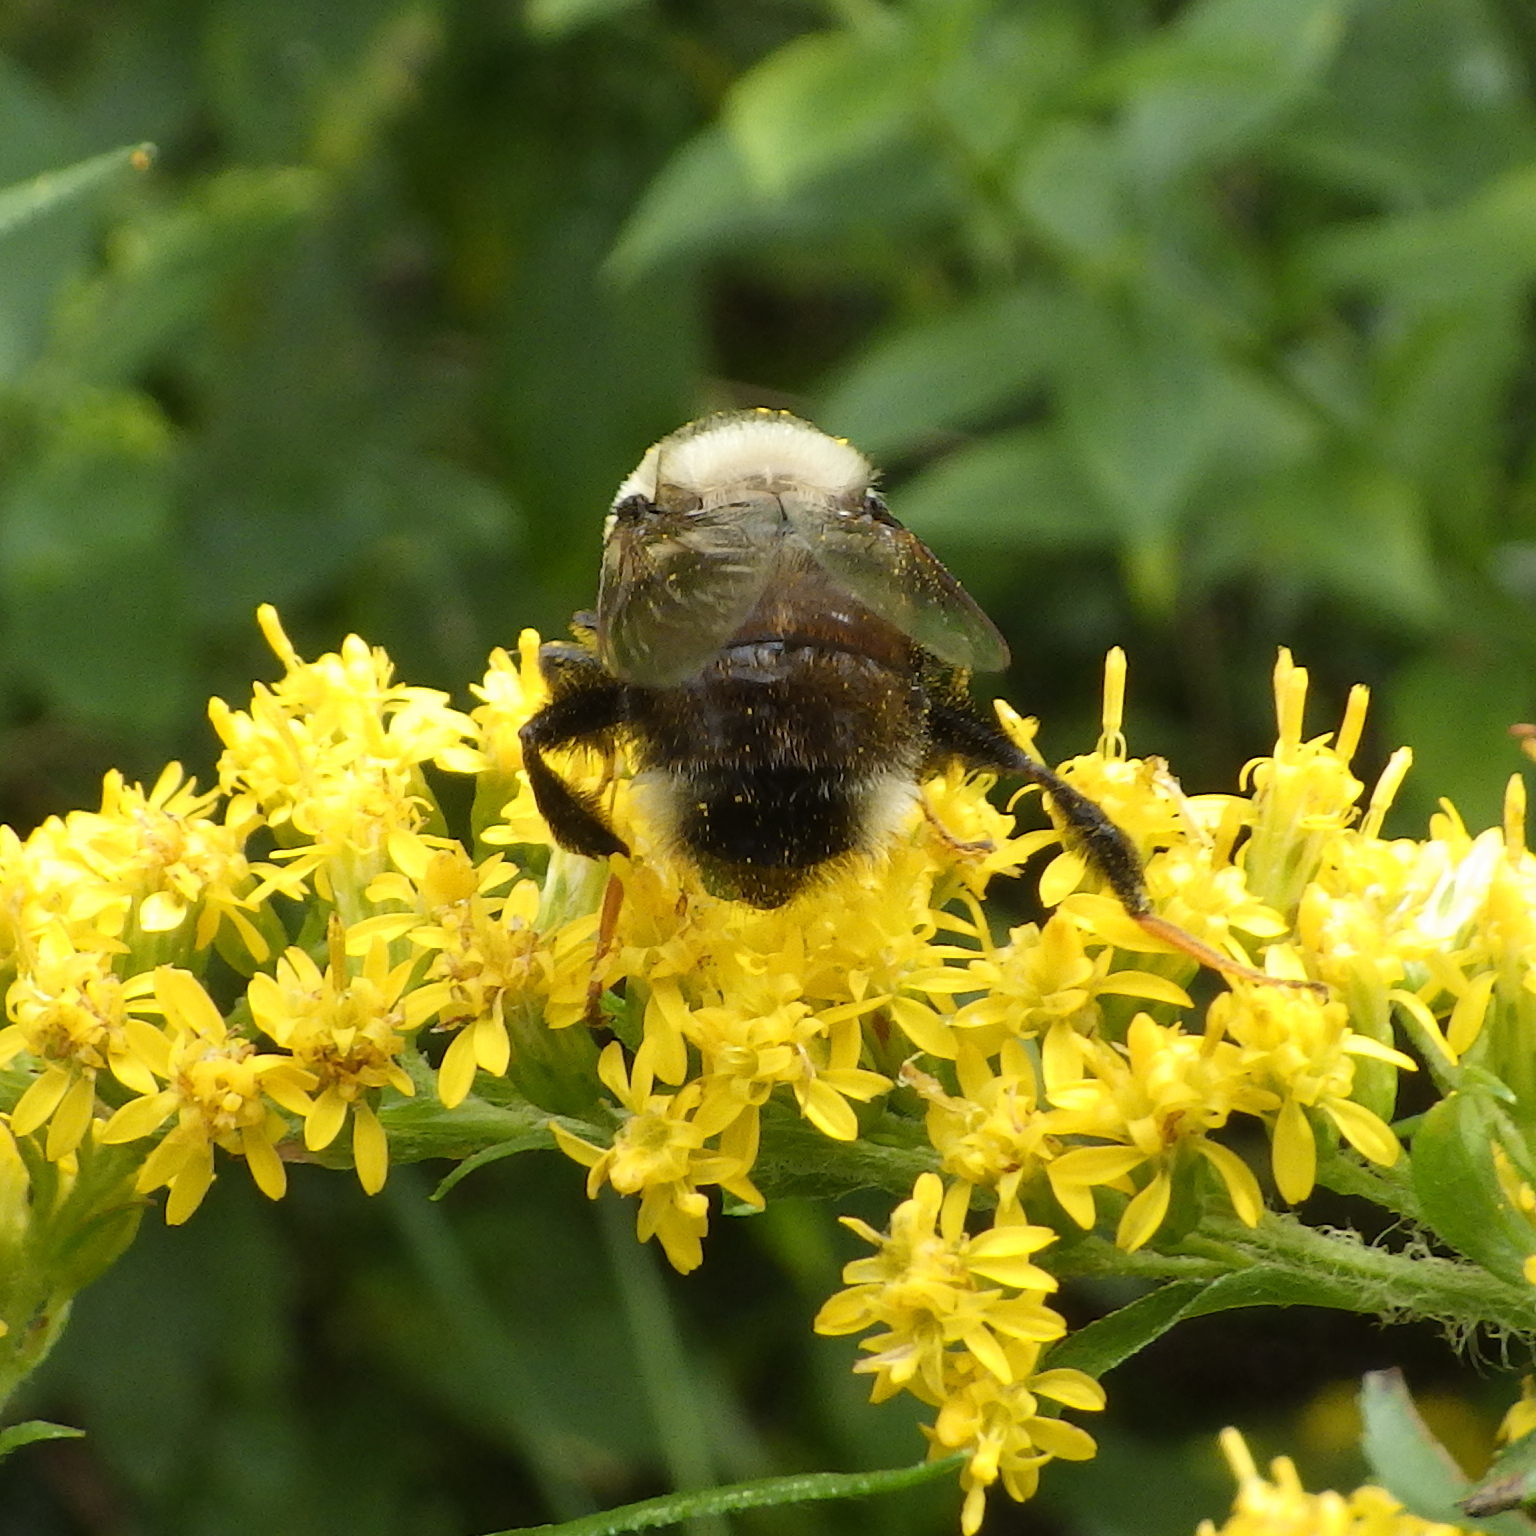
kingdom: Animalia
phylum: Arthropoda
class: Insecta
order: Diptera
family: Syrphidae
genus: Eristalis
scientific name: Eristalis flavipes
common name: Orange-legged drone fly
